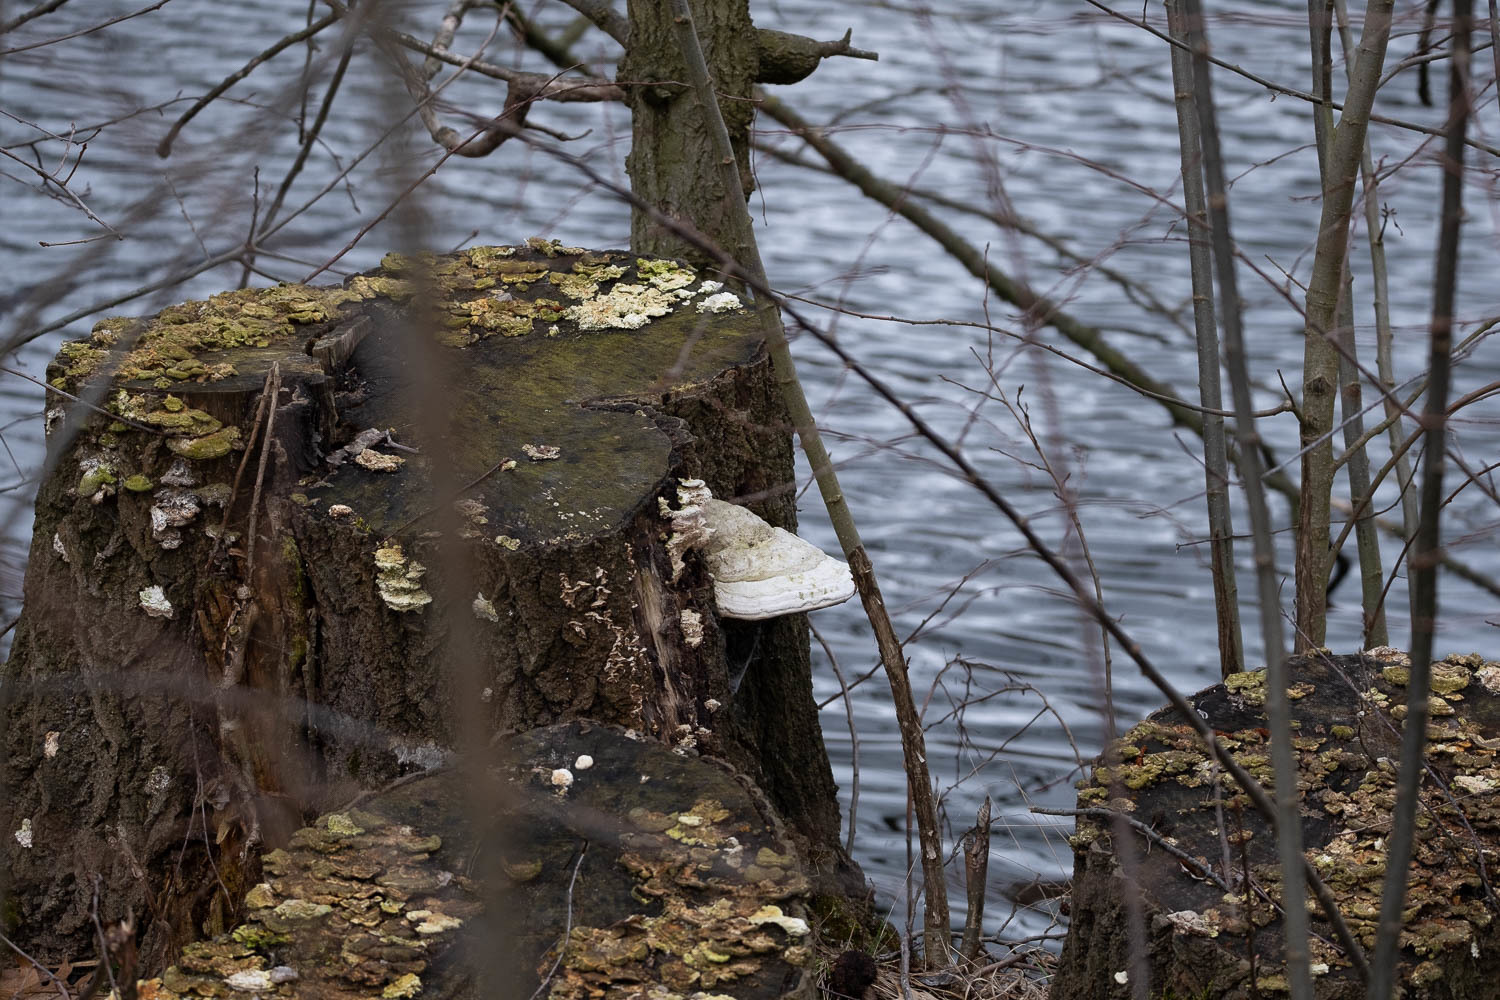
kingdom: Fungi
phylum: Basidiomycota
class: Agaricomycetes
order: Polyporales
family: Polyporaceae
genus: Fomes
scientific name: Fomes fomentarius
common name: Hoof fungus
